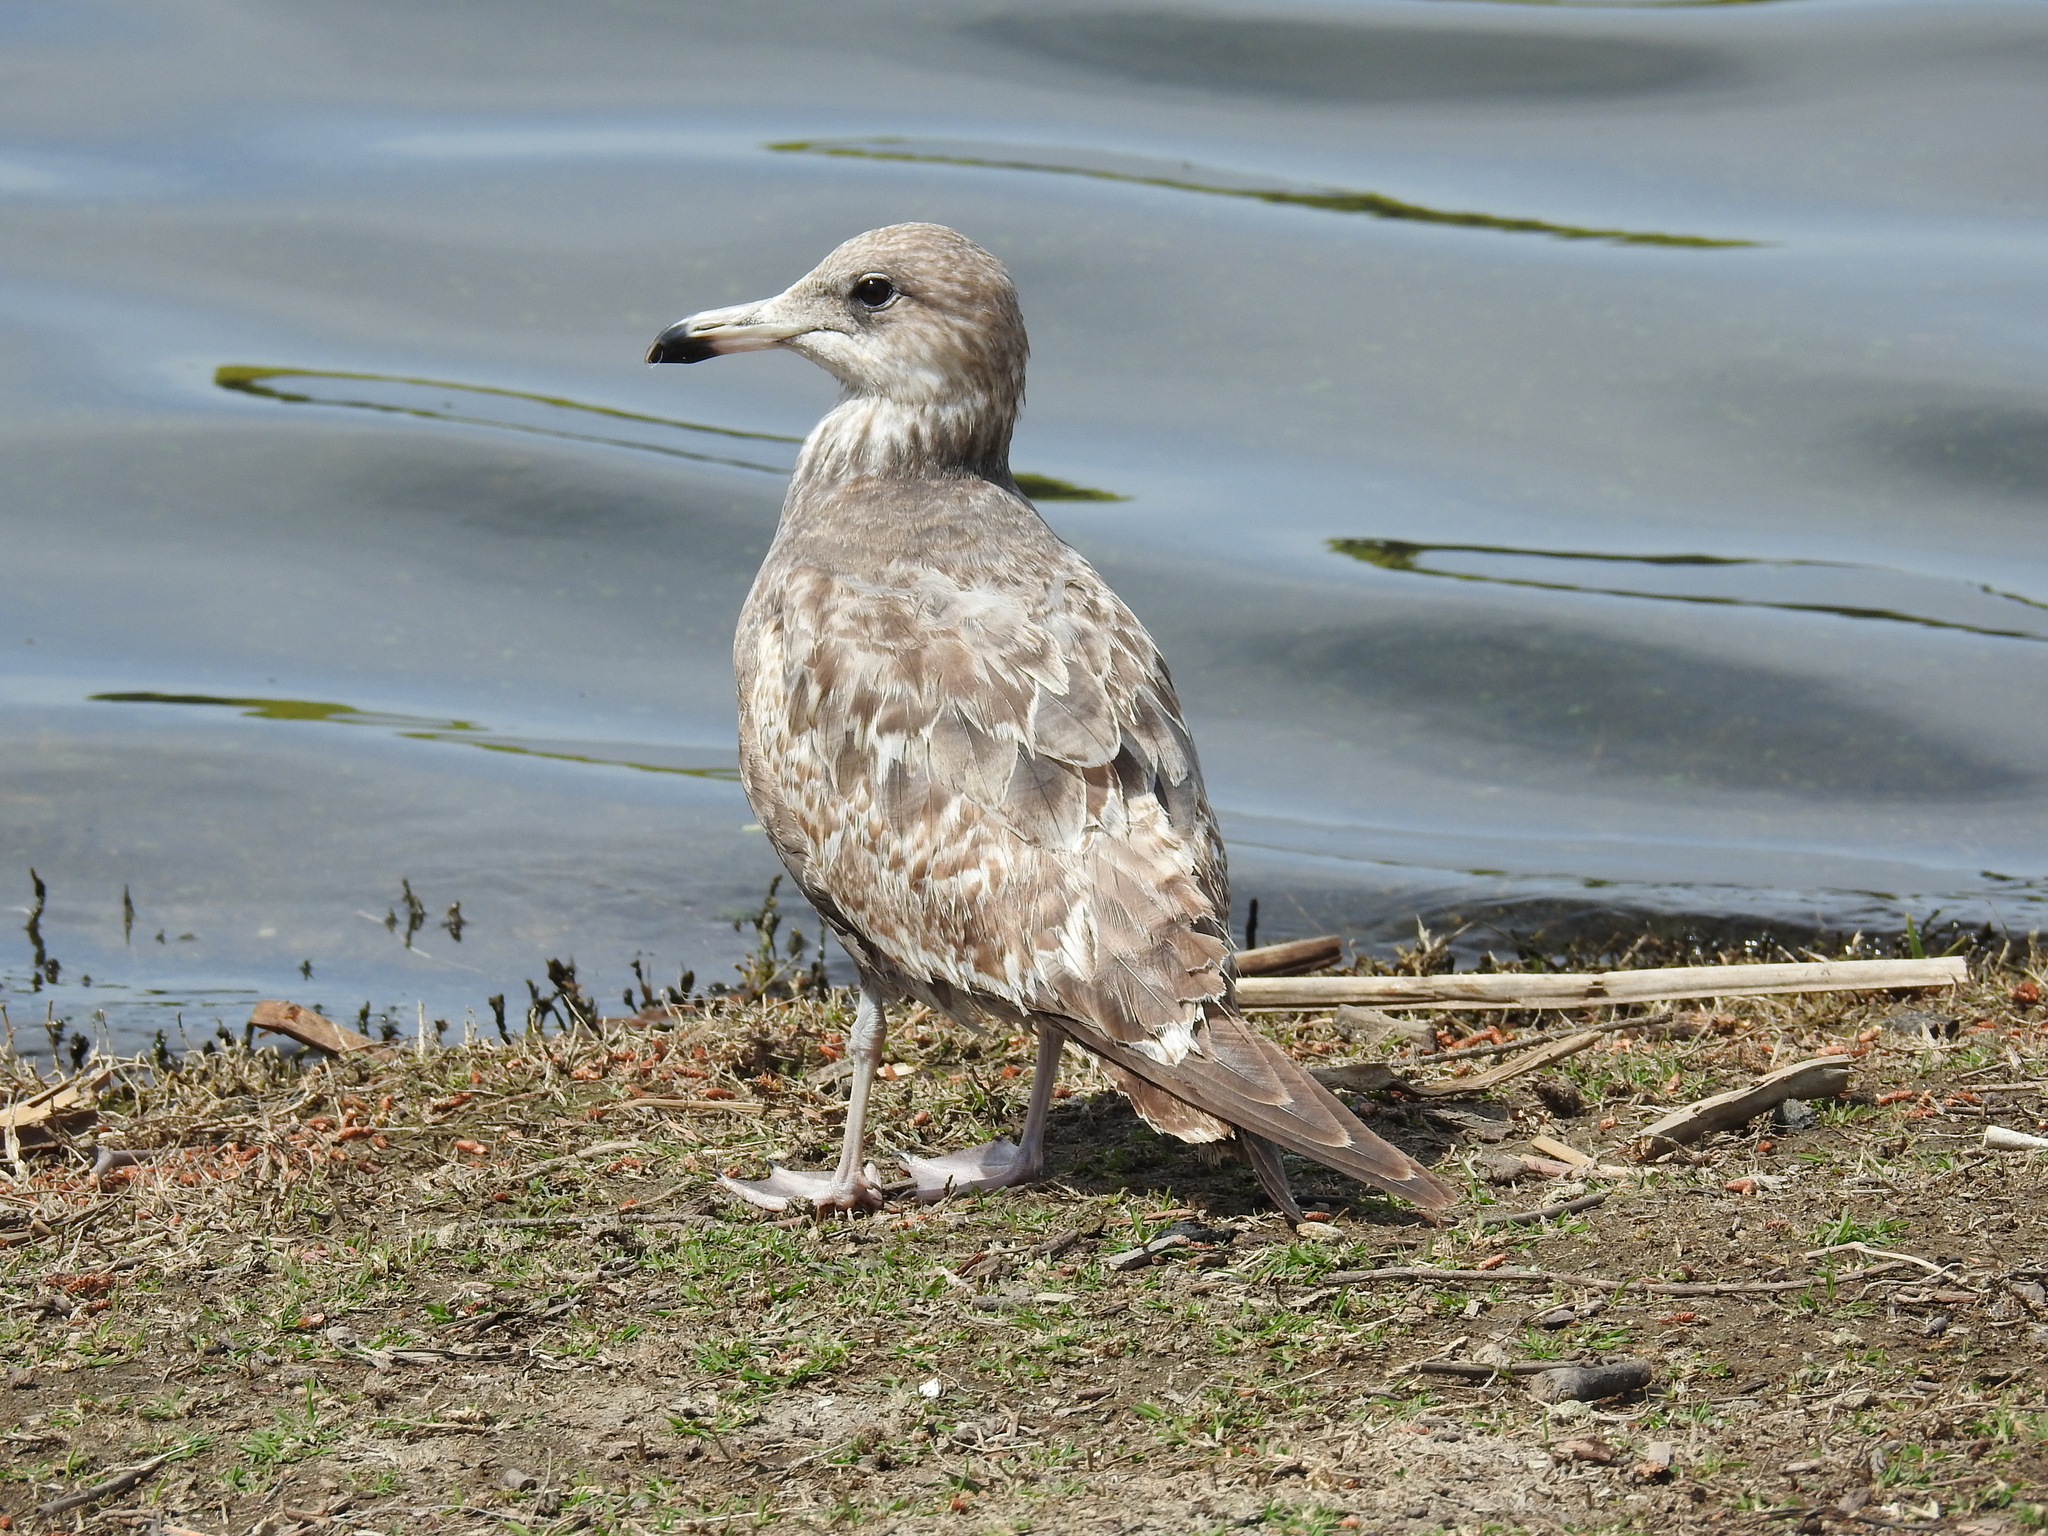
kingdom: Animalia
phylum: Chordata
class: Aves
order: Charadriiformes
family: Laridae
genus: Larus
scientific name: Larus californicus
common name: California gull
